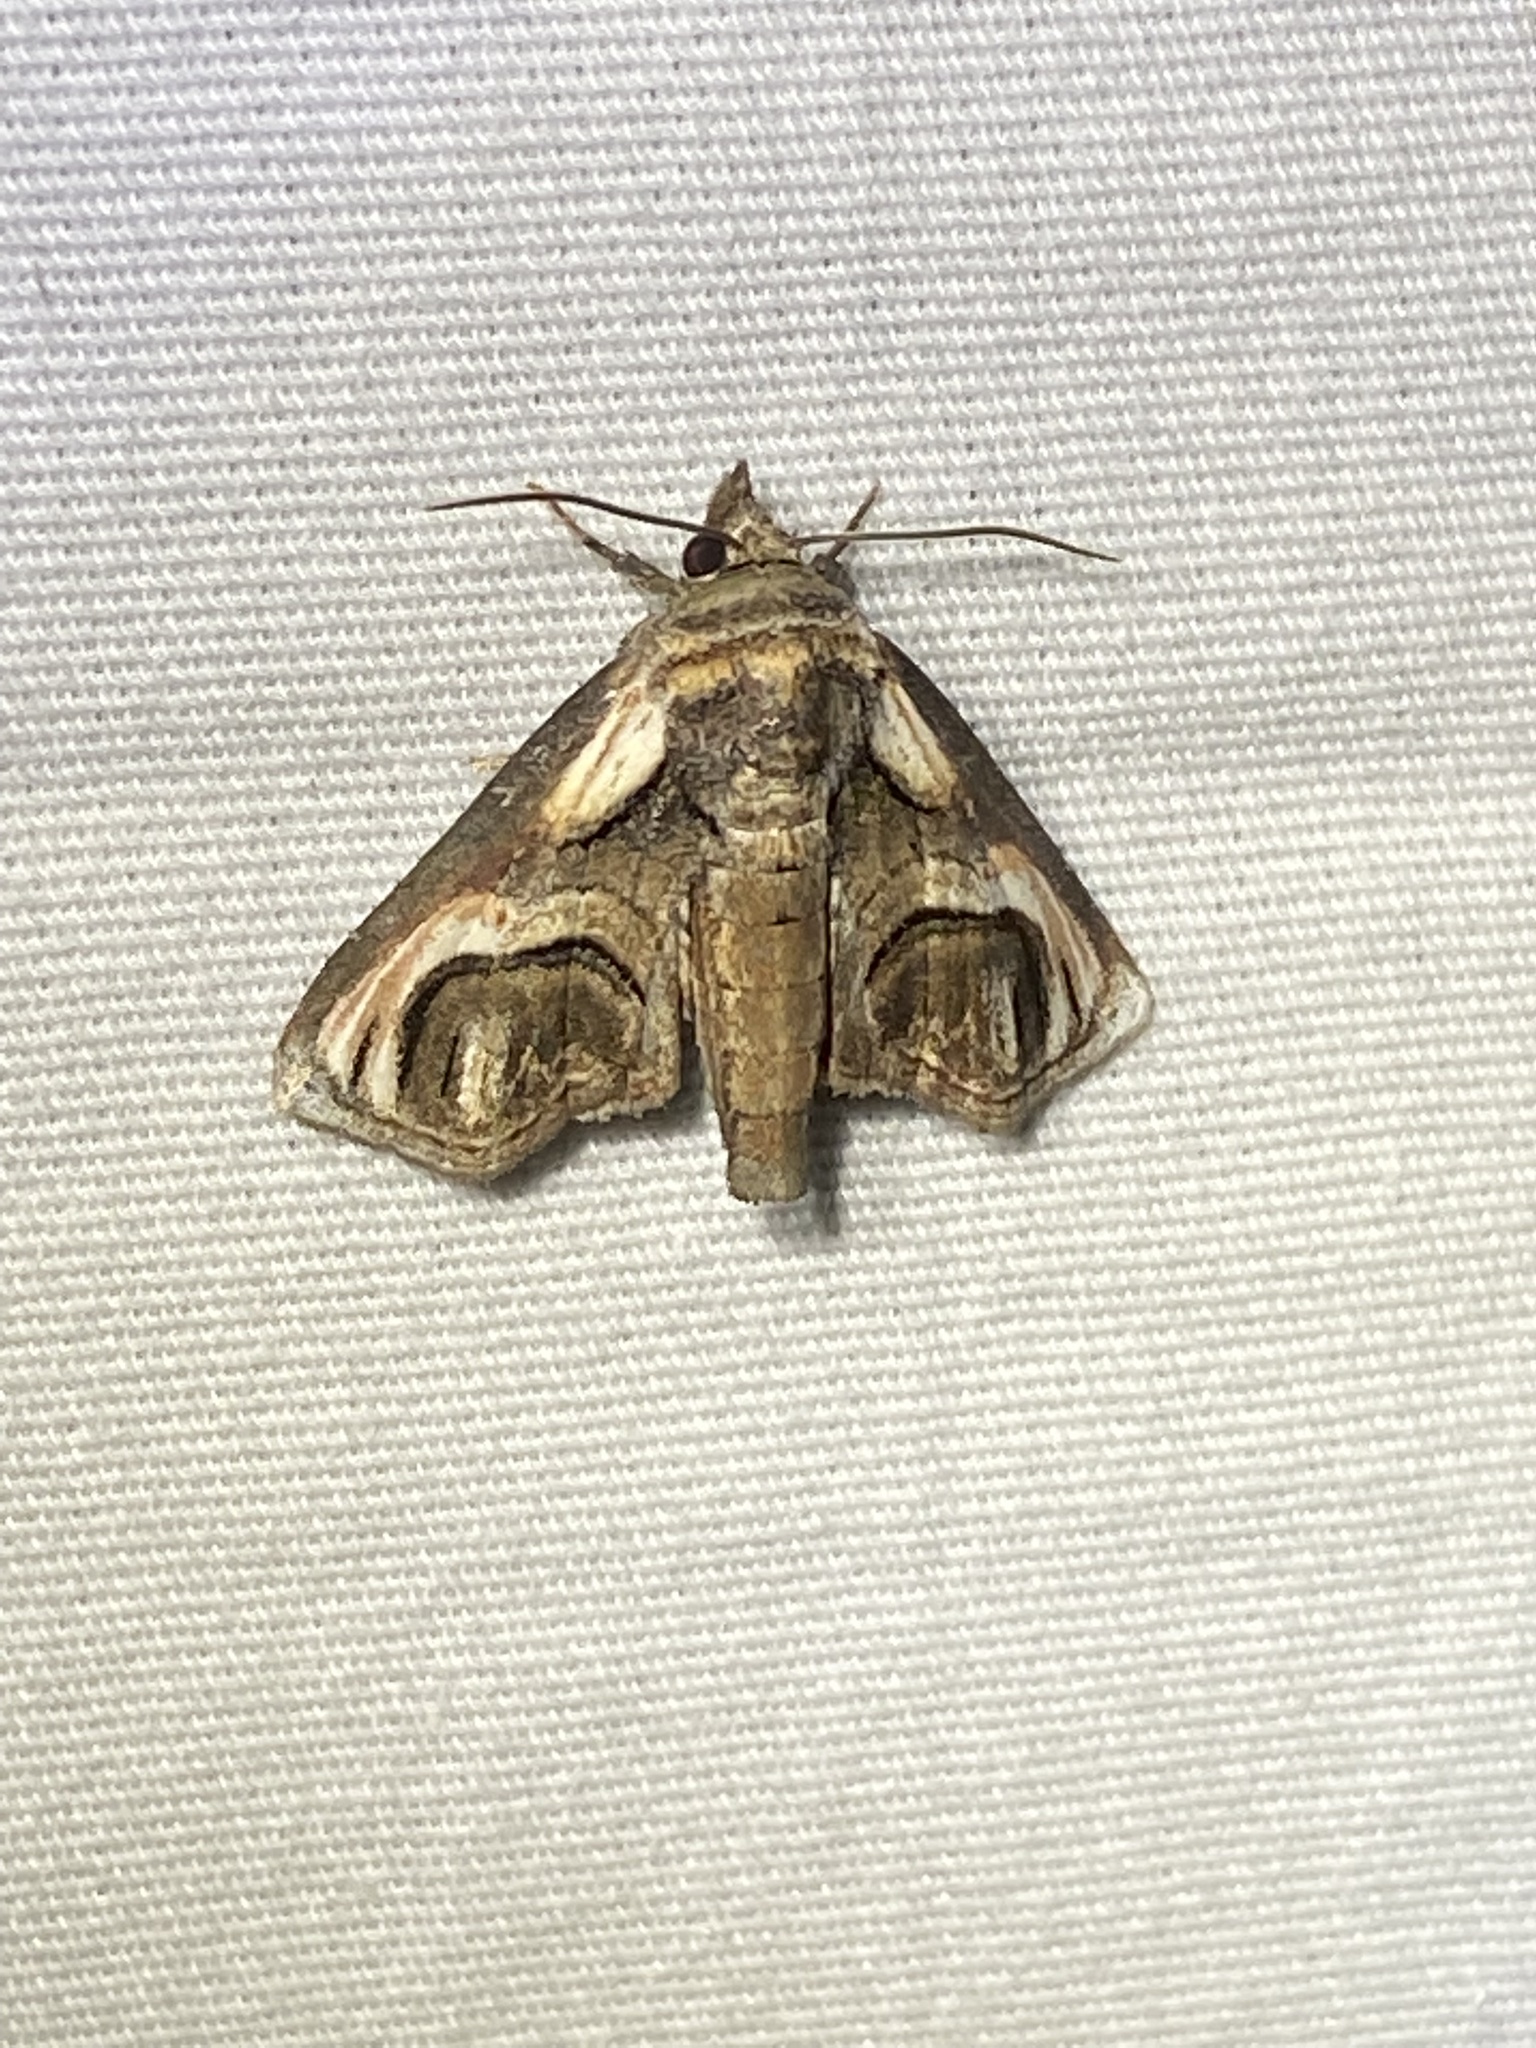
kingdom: Animalia
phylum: Arthropoda
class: Insecta
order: Lepidoptera
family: Euteliidae
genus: Paectes
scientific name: Paectes oculatrix
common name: Eyed paectes moth
